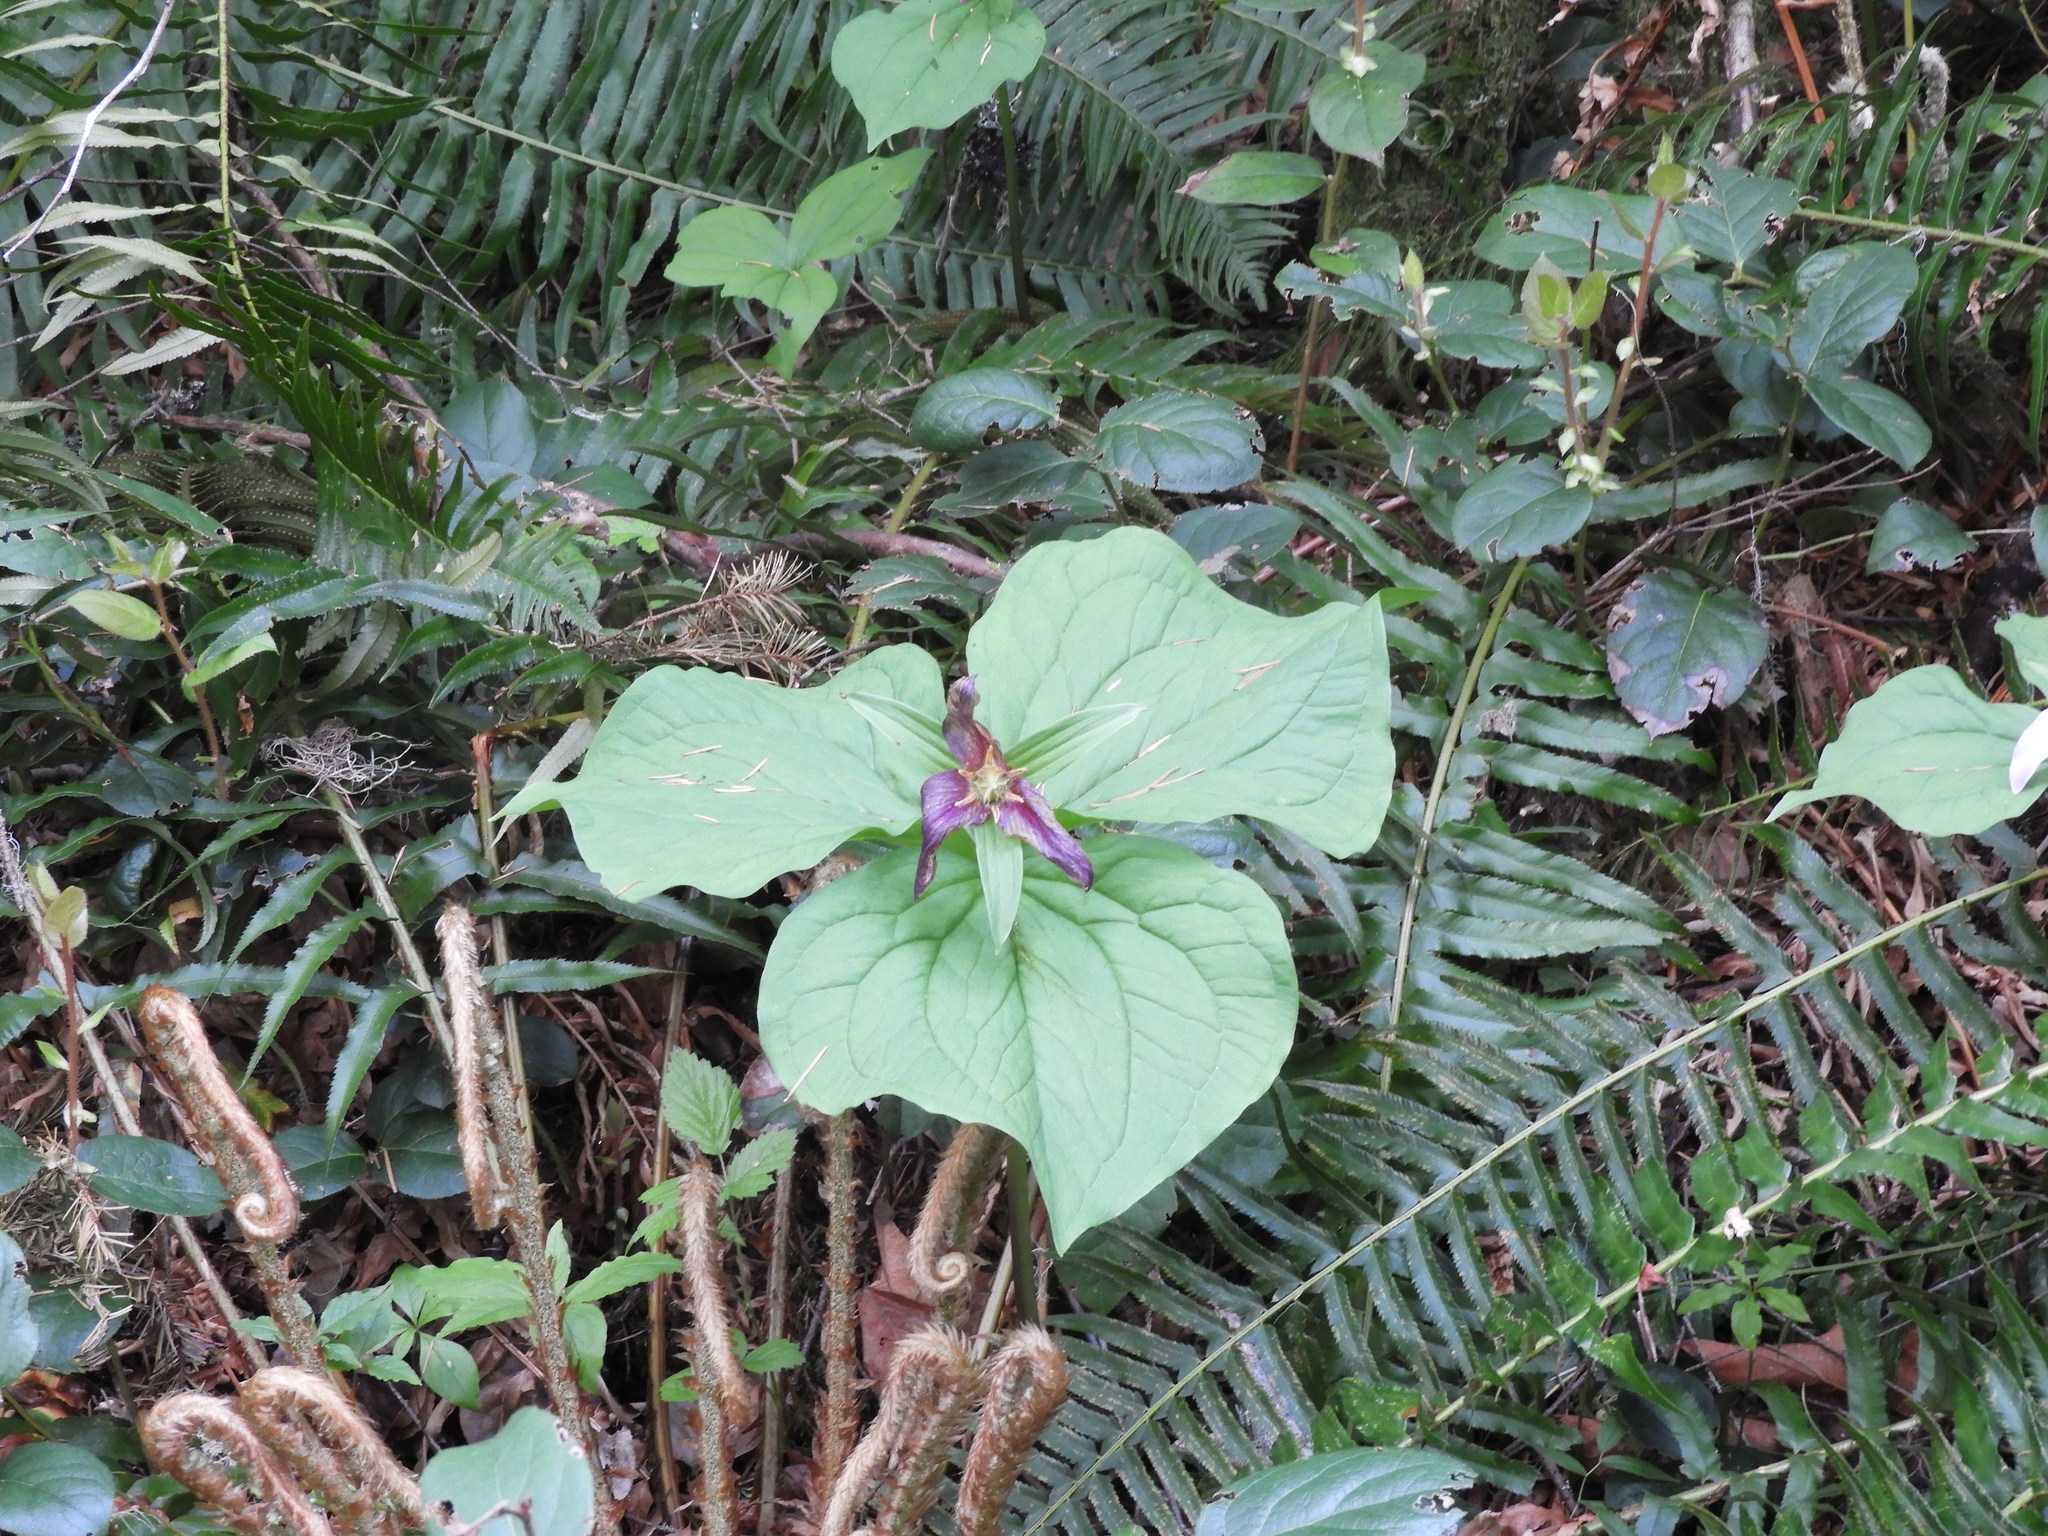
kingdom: Plantae
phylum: Tracheophyta
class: Liliopsida
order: Liliales
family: Melanthiaceae
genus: Trillium
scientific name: Trillium ovatum
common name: Pacific trillium
